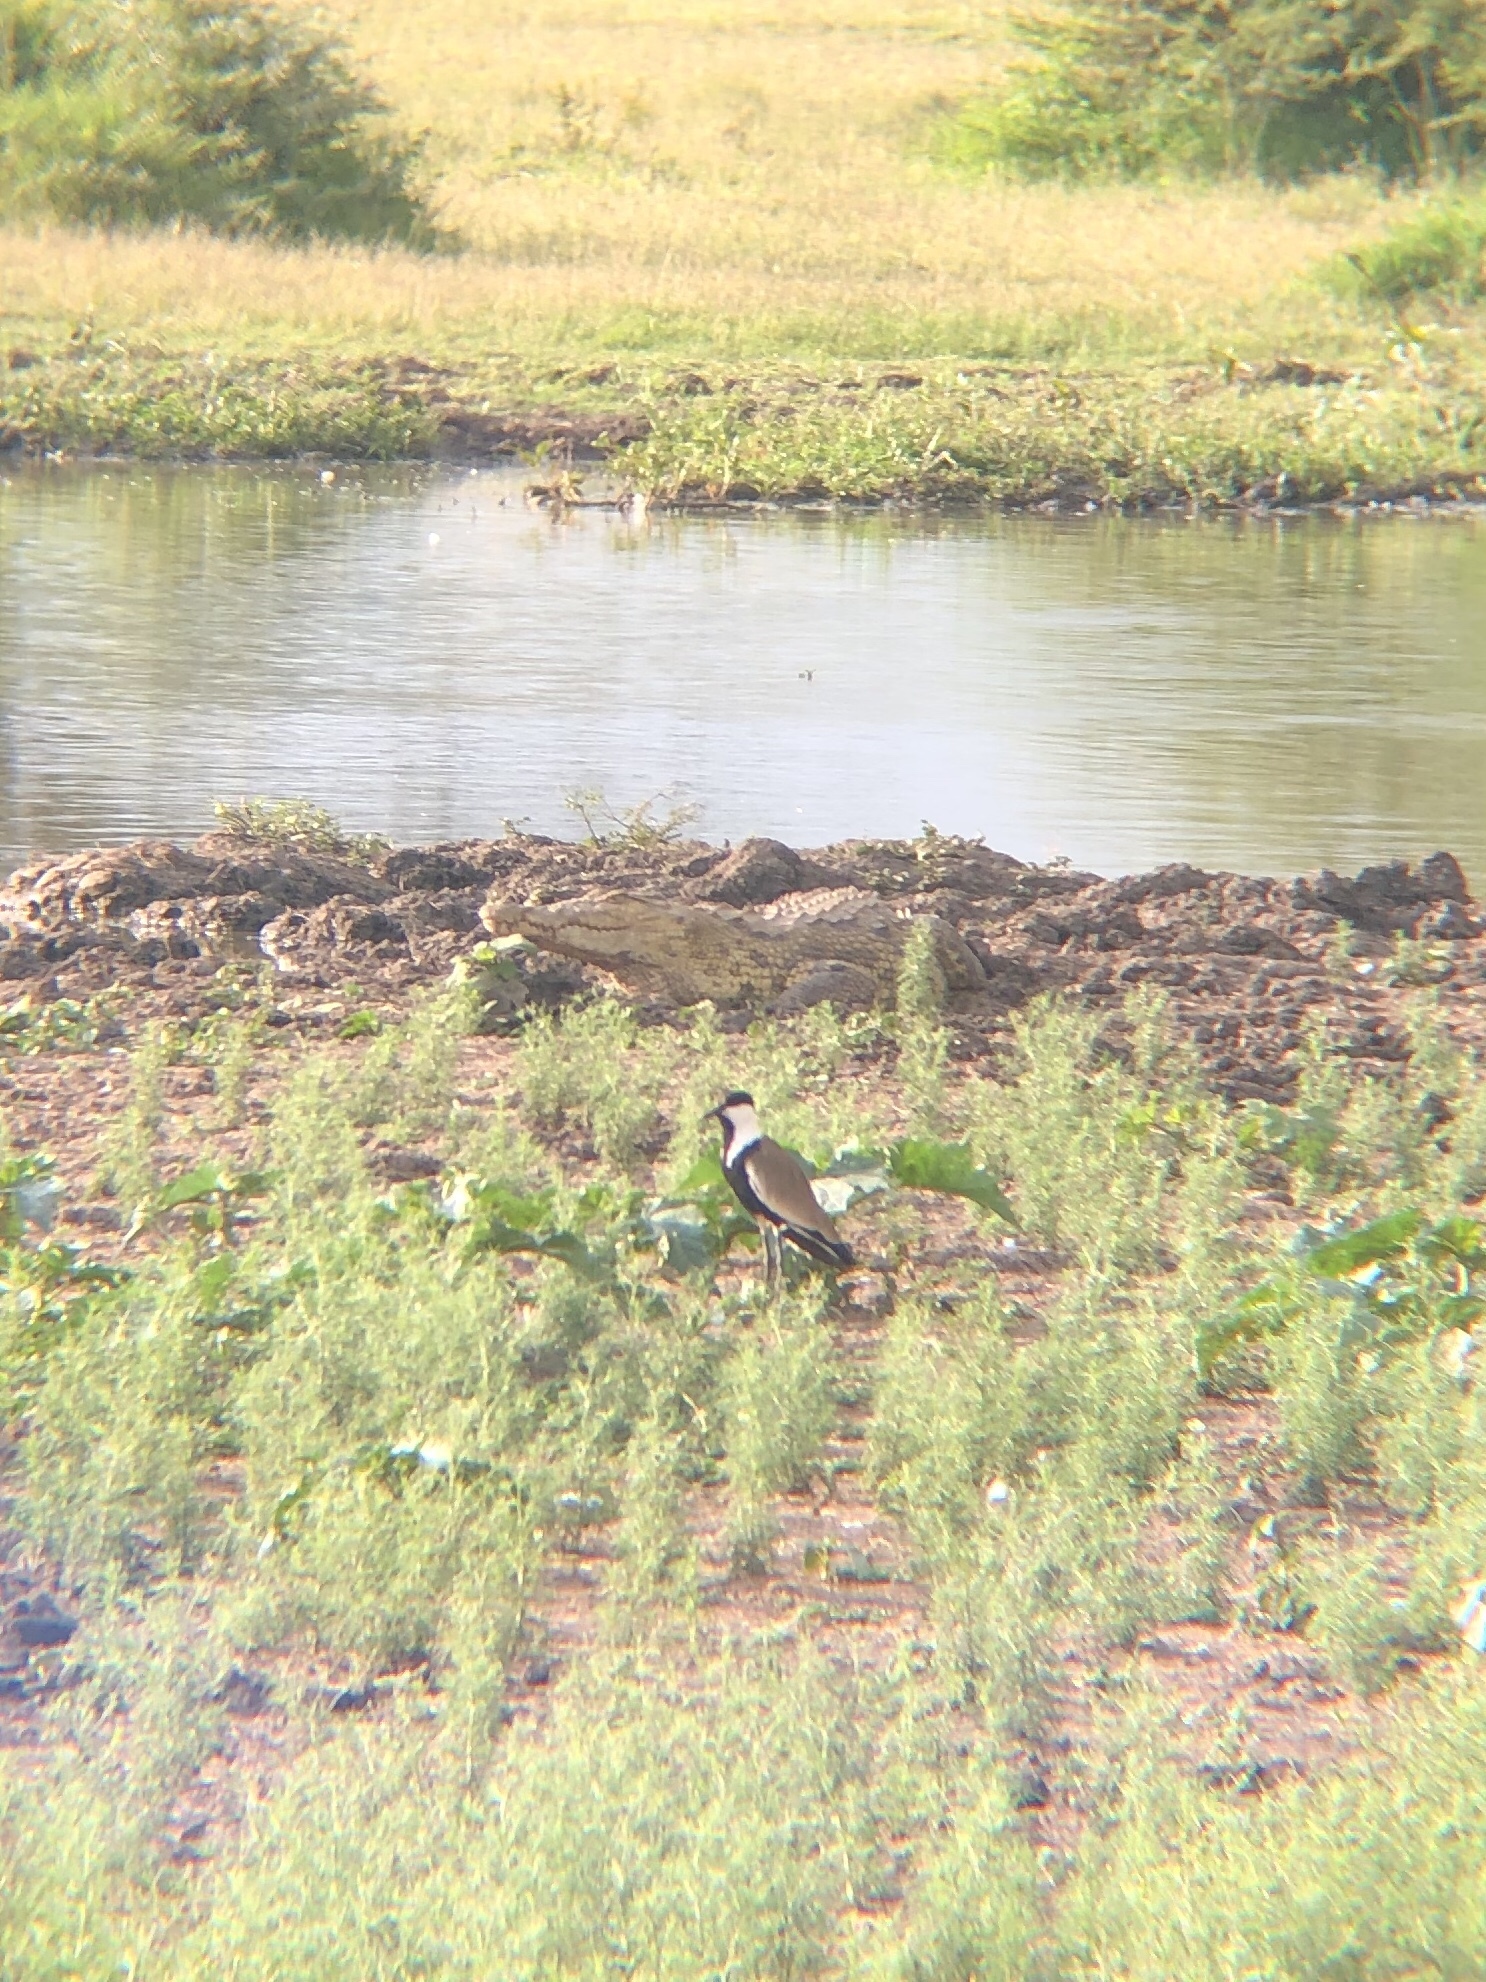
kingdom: Animalia
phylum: Chordata
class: Aves
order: Charadriiformes
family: Charadriidae
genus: Vanellus
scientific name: Vanellus spinosus
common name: Spur-winged lapwing
